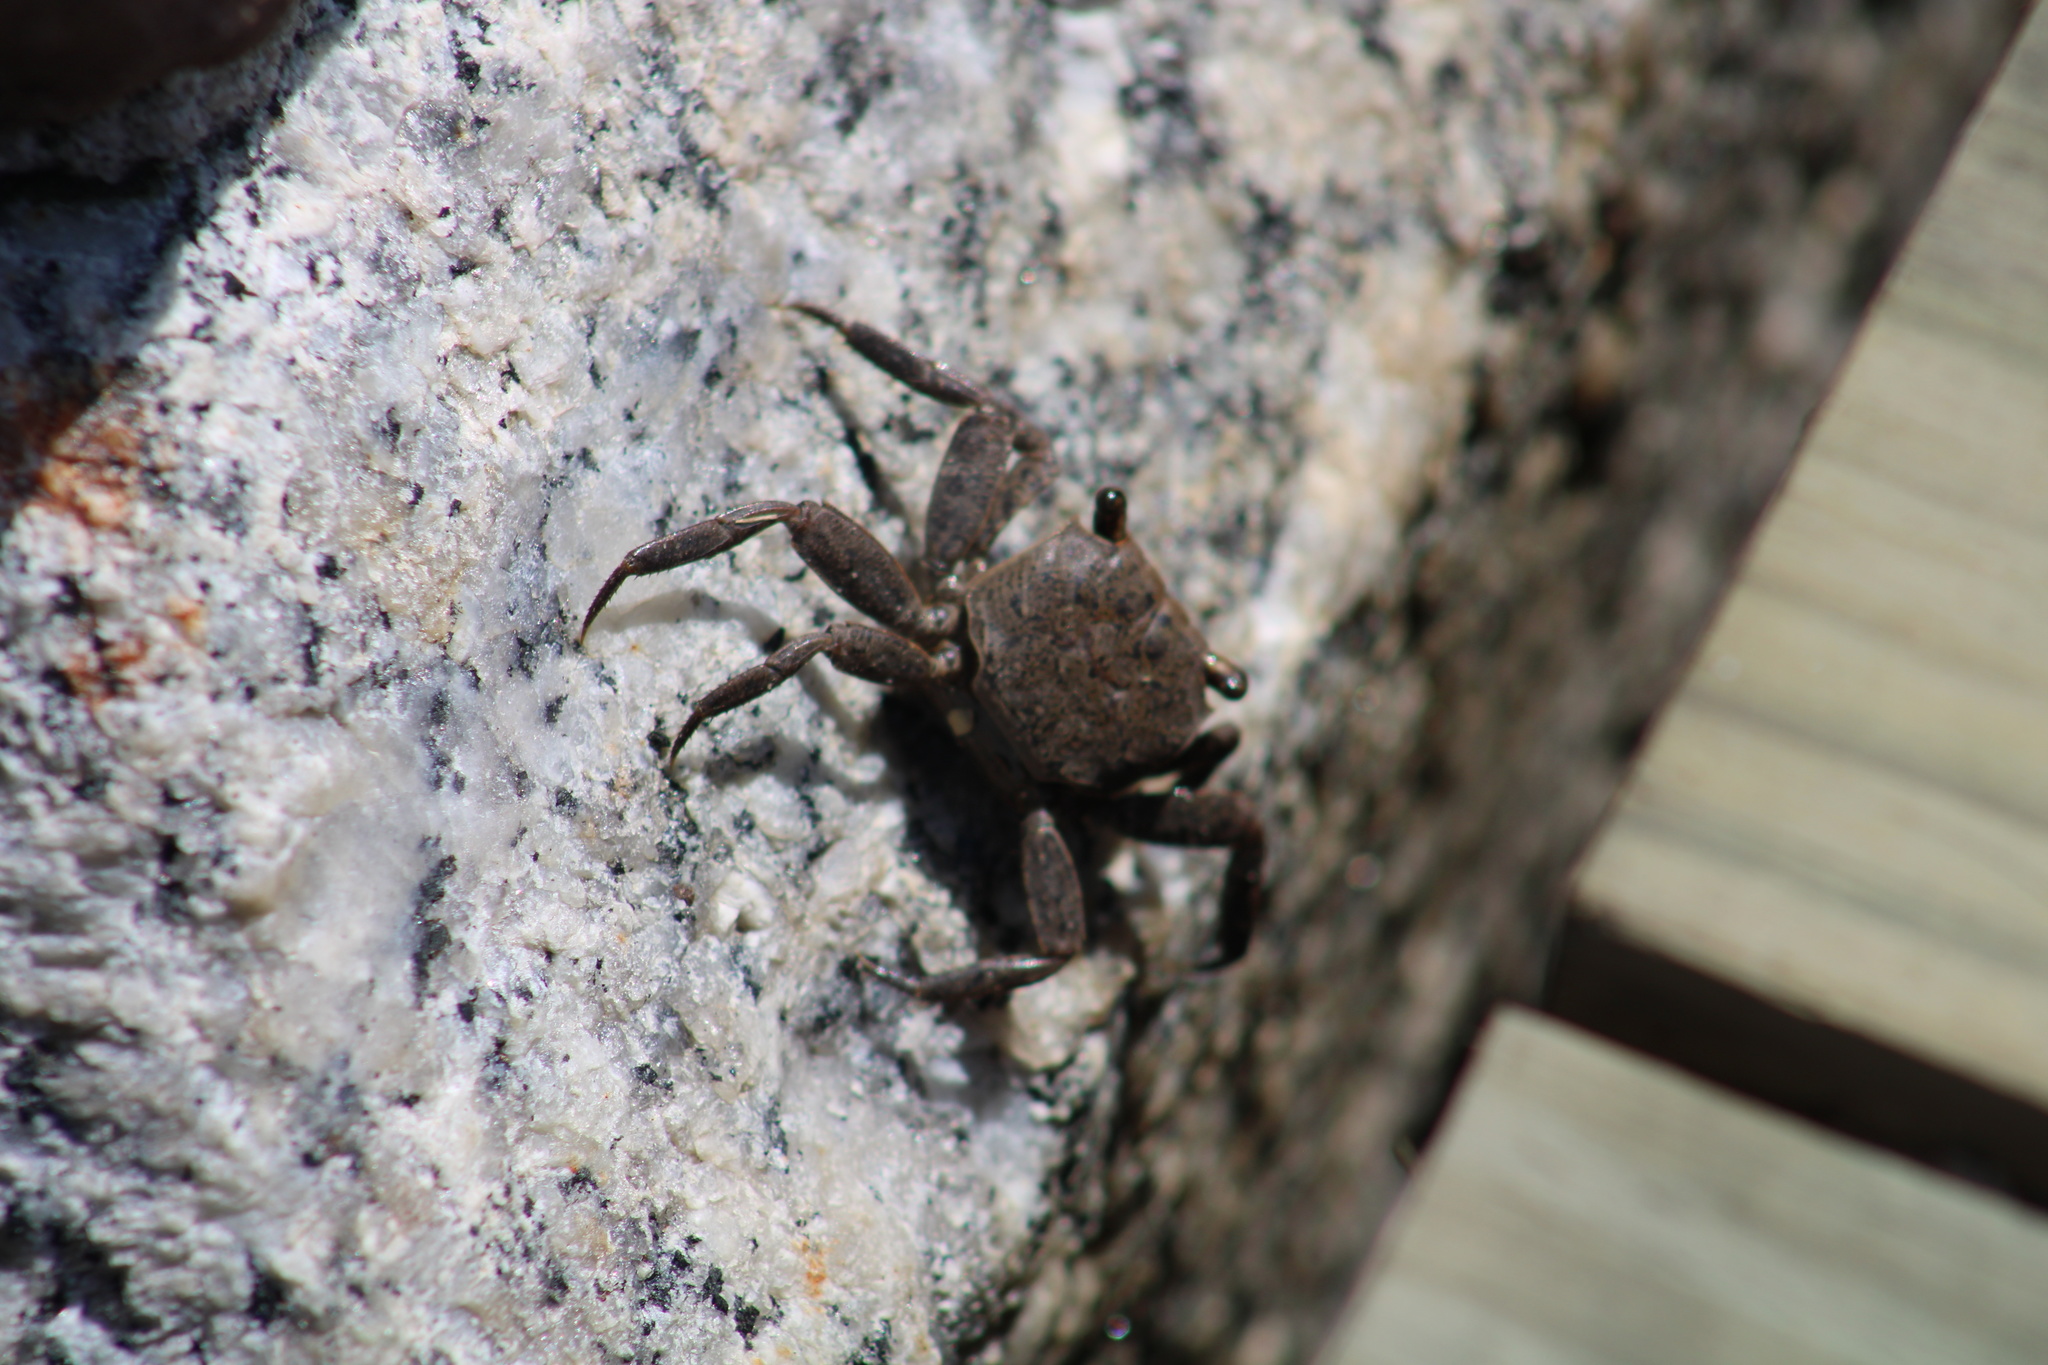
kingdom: Animalia
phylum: Arthropoda
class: Malacostraca
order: Decapoda
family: Sesarmidae
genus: Armases
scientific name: Armases cinereum
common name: Squareback marsh crab
